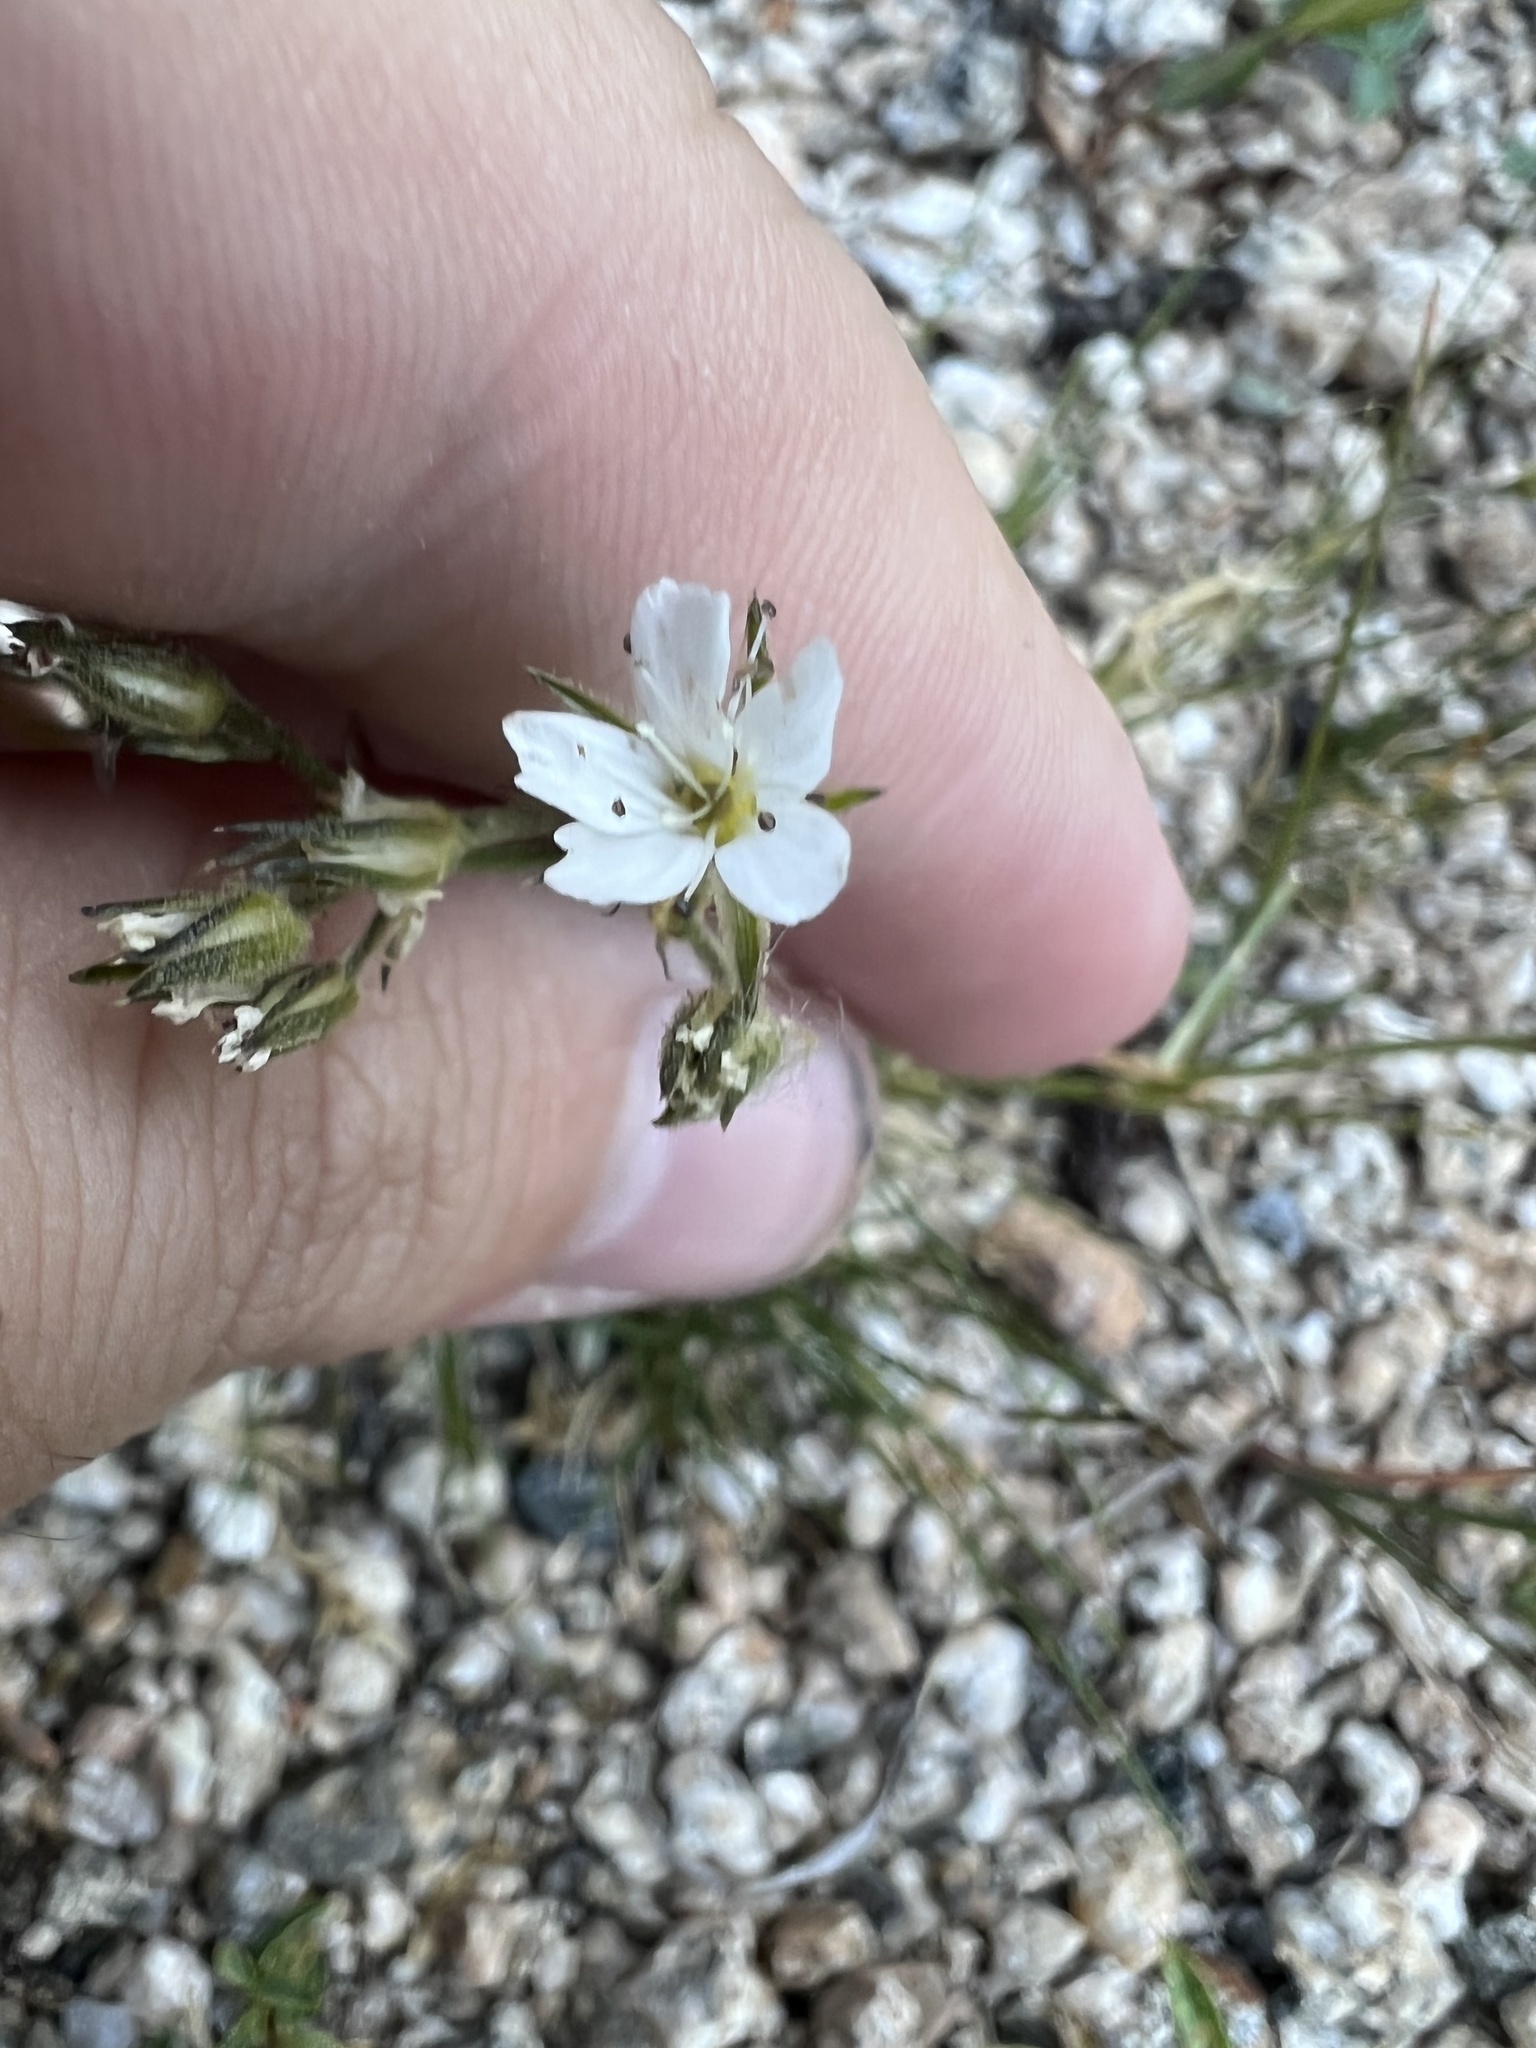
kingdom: Plantae
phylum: Tracheophyta
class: Magnoliopsida
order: Caryophyllales
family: Caryophyllaceae
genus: Eremogone
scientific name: Eremogone fendleri
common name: Fendler's sandwort
